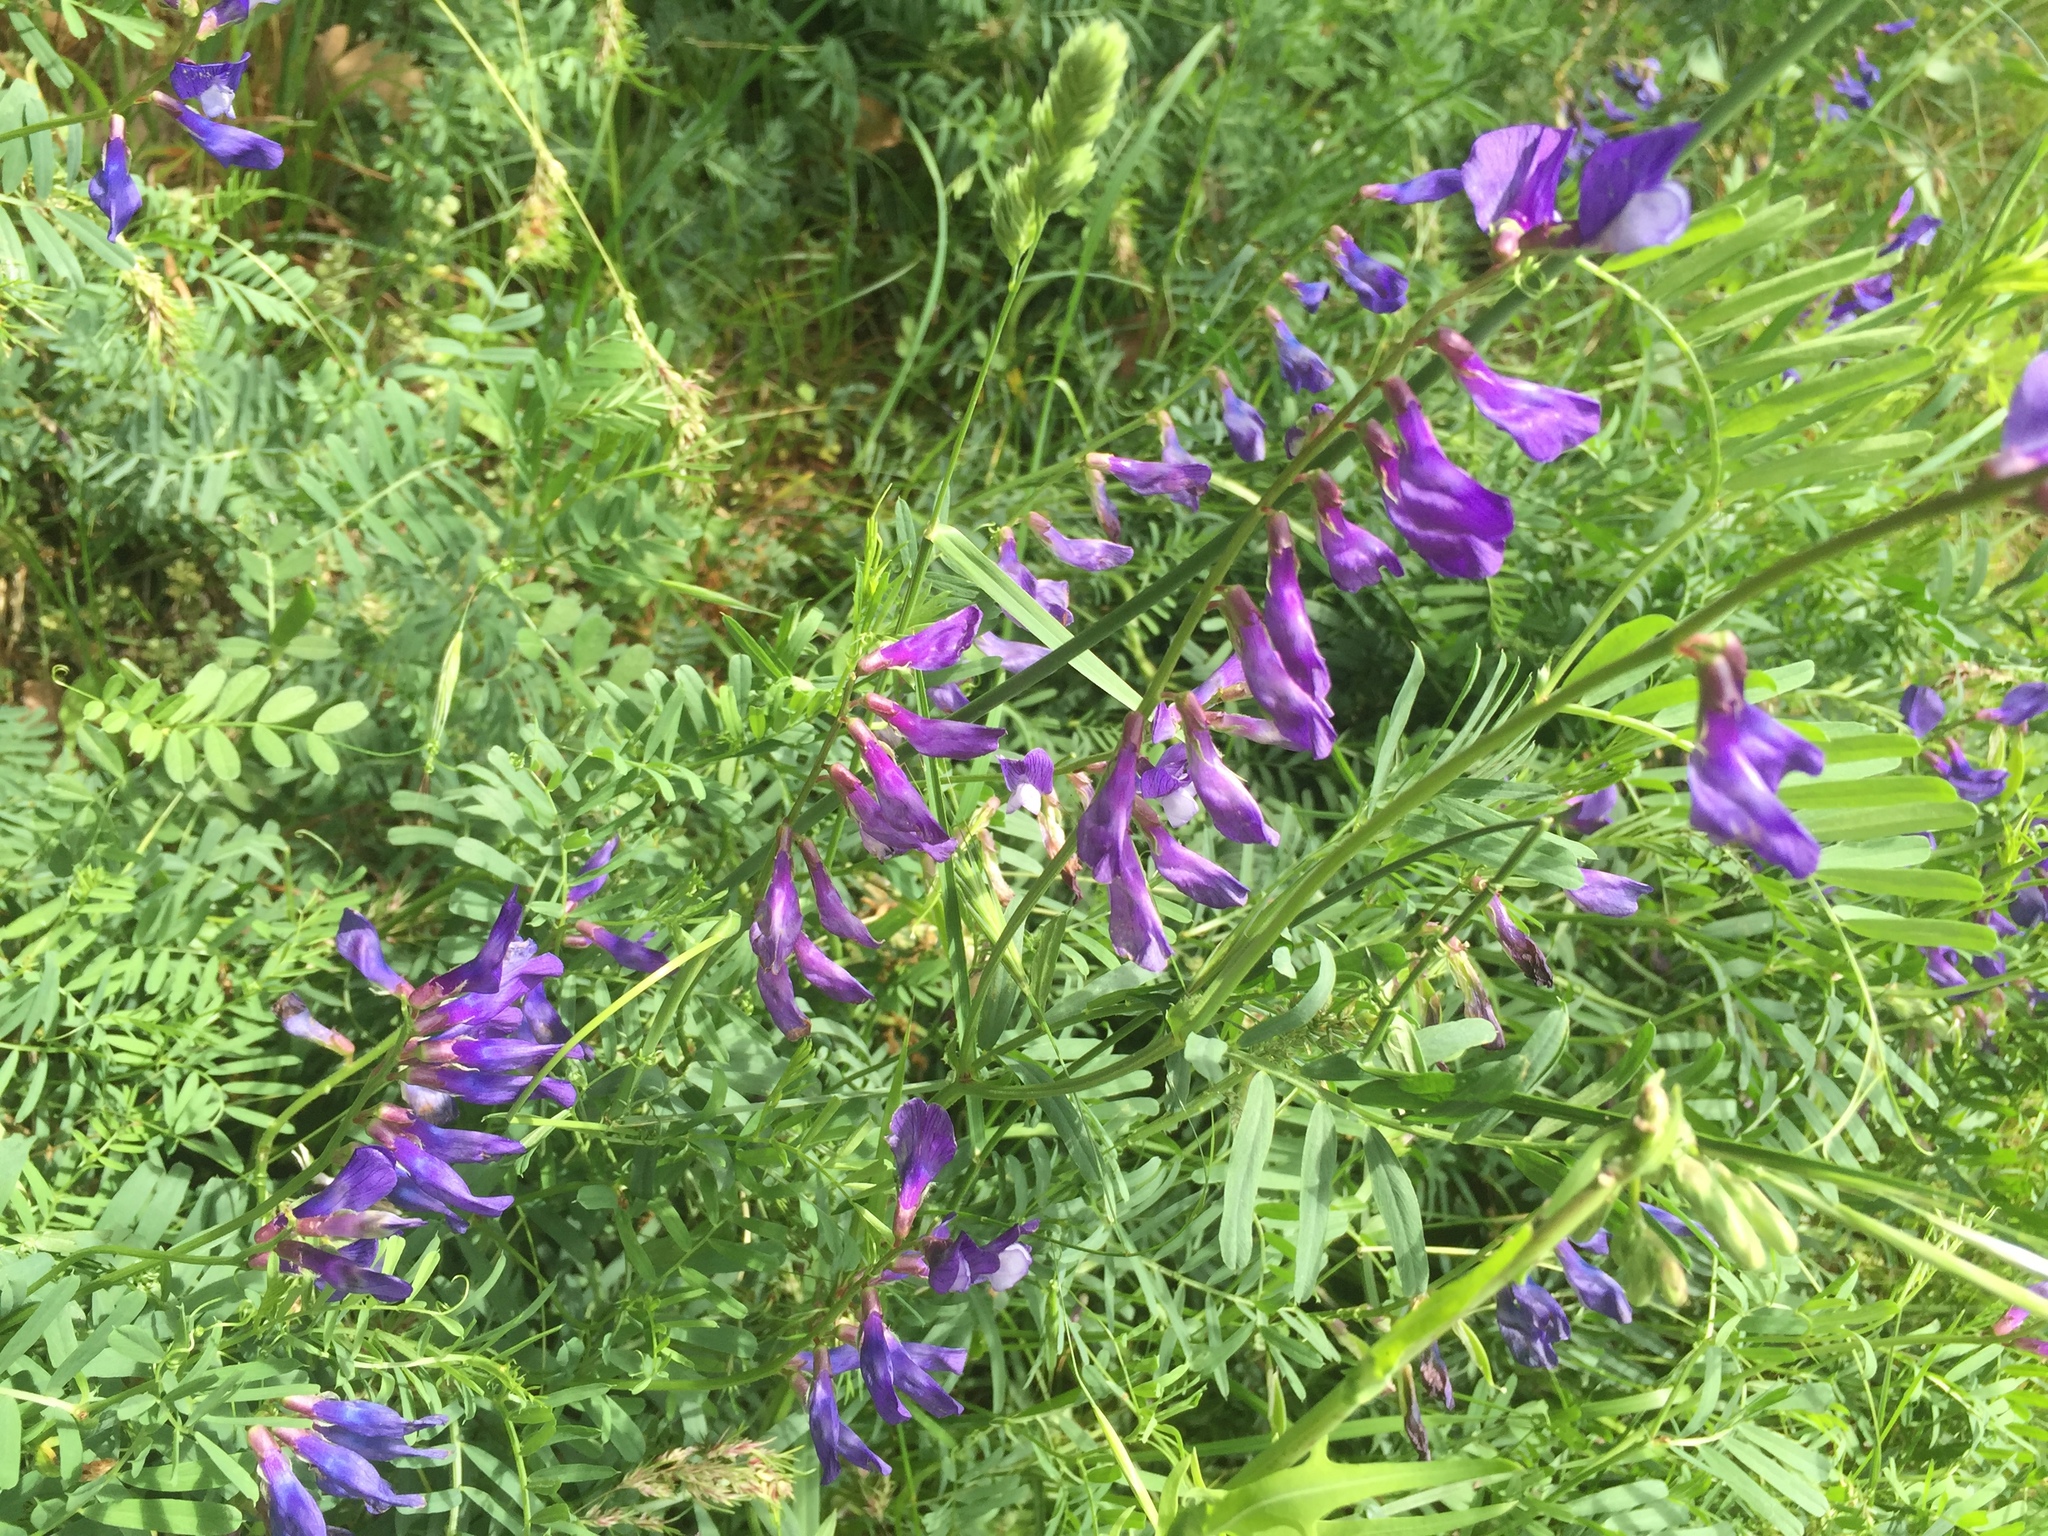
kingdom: Plantae
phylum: Tracheophyta
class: Magnoliopsida
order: Fabales
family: Fabaceae
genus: Vicia
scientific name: Vicia onobrychioides
